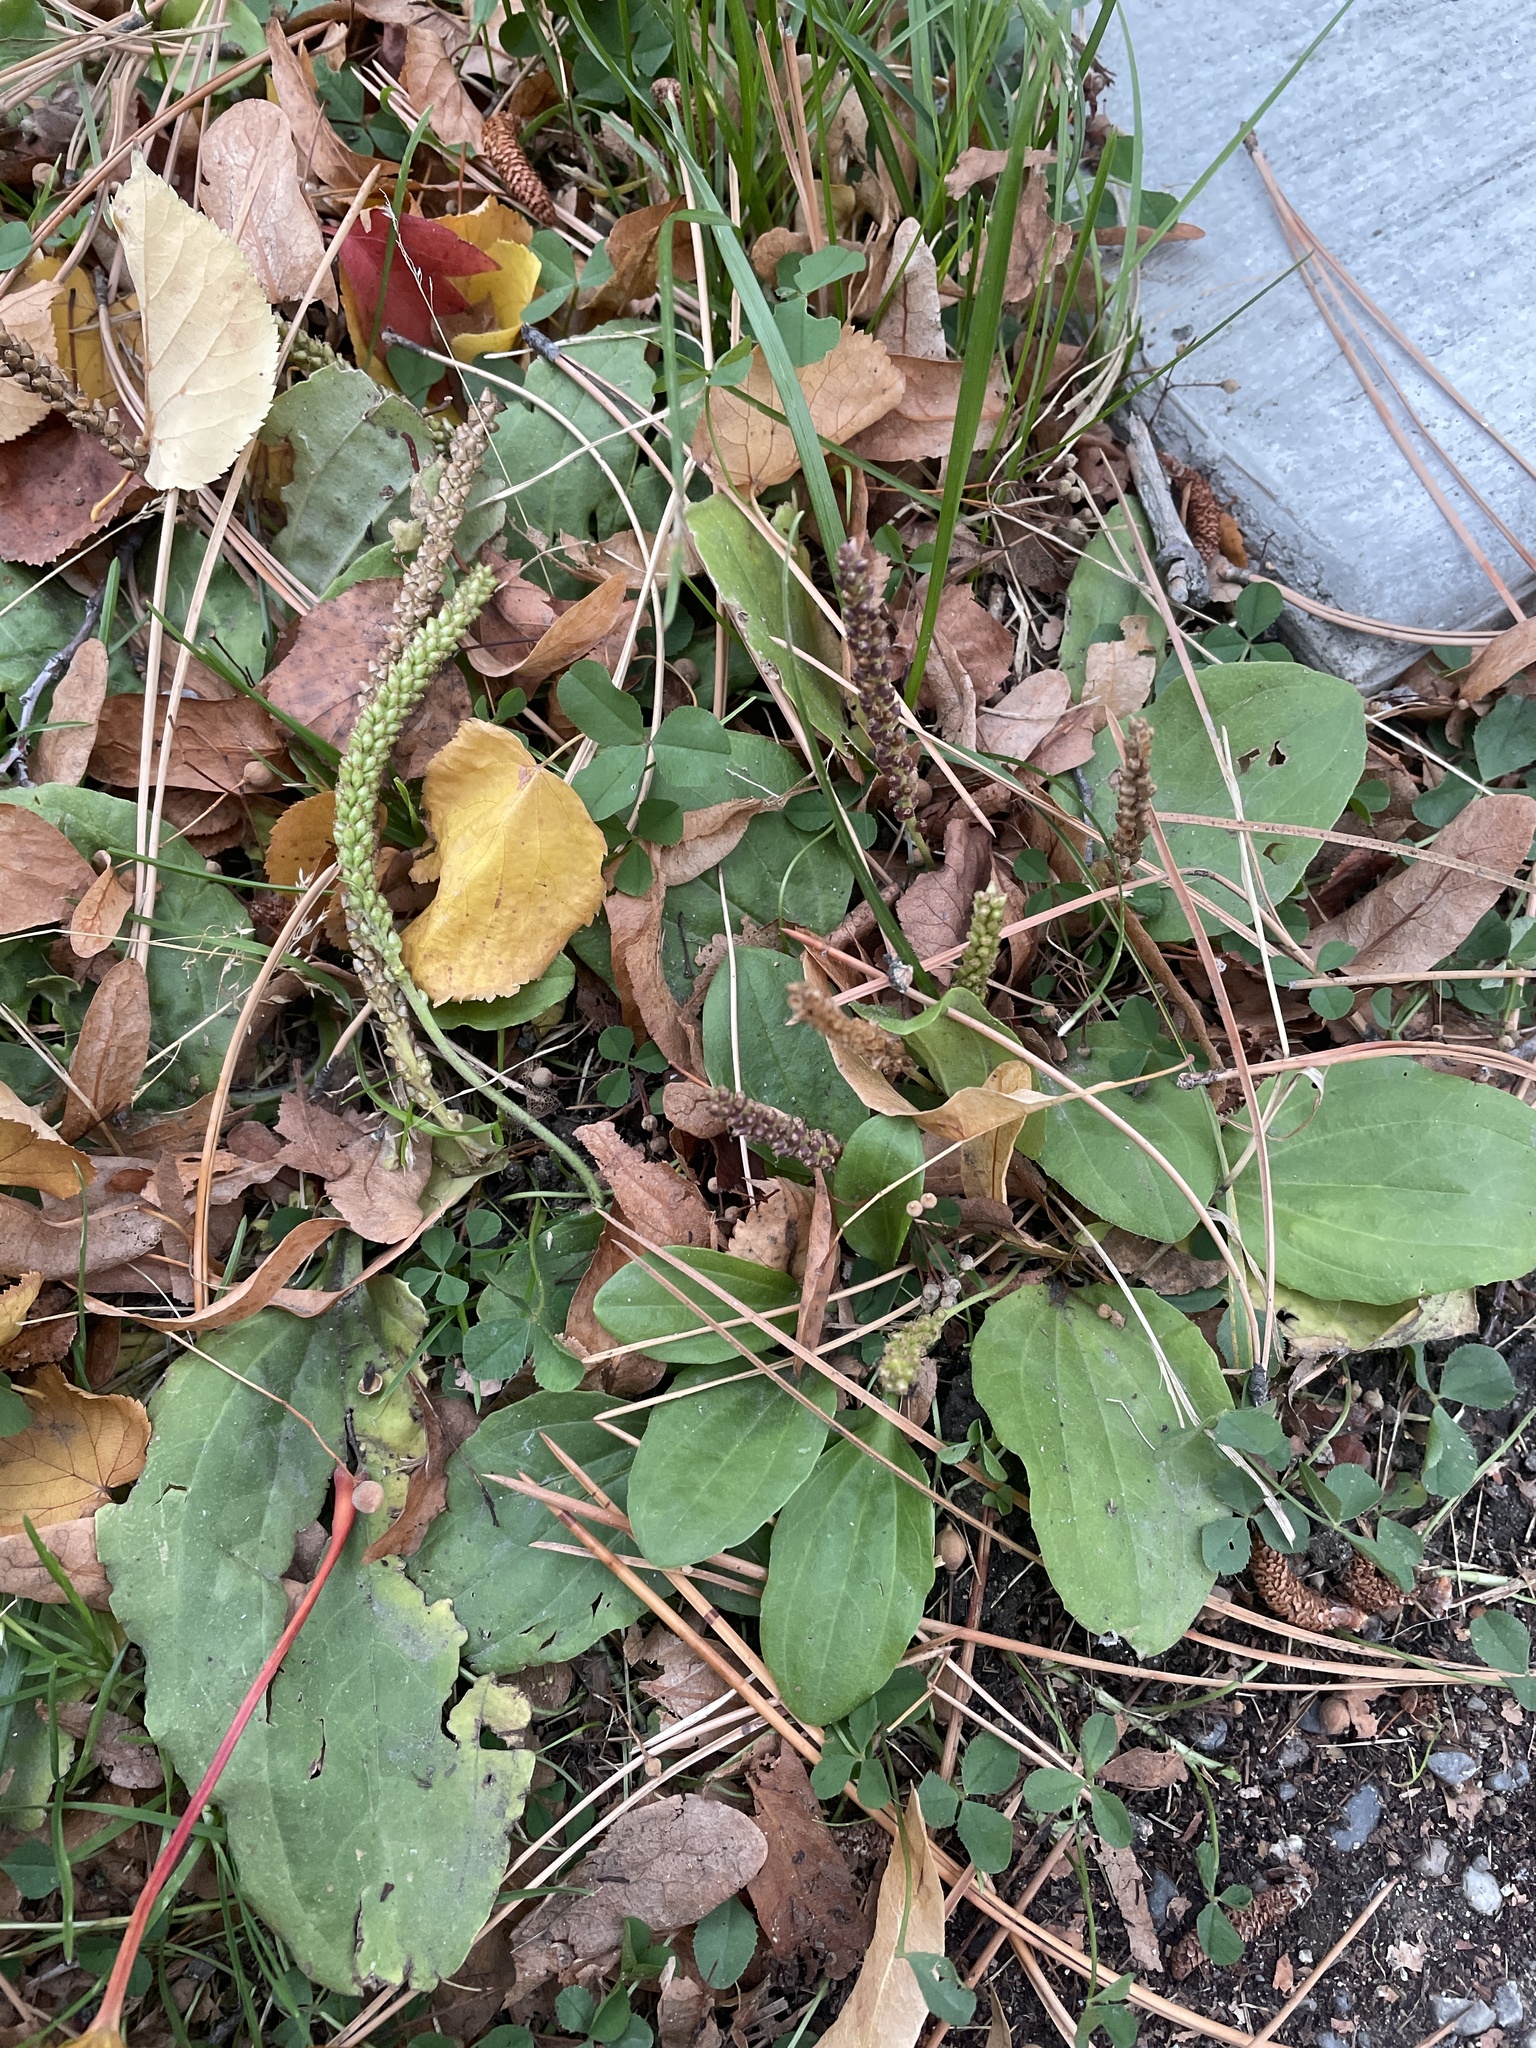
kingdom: Plantae
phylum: Tracheophyta
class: Magnoliopsida
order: Lamiales
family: Plantaginaceae
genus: Plantago
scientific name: Plantago major
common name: Common plantain
